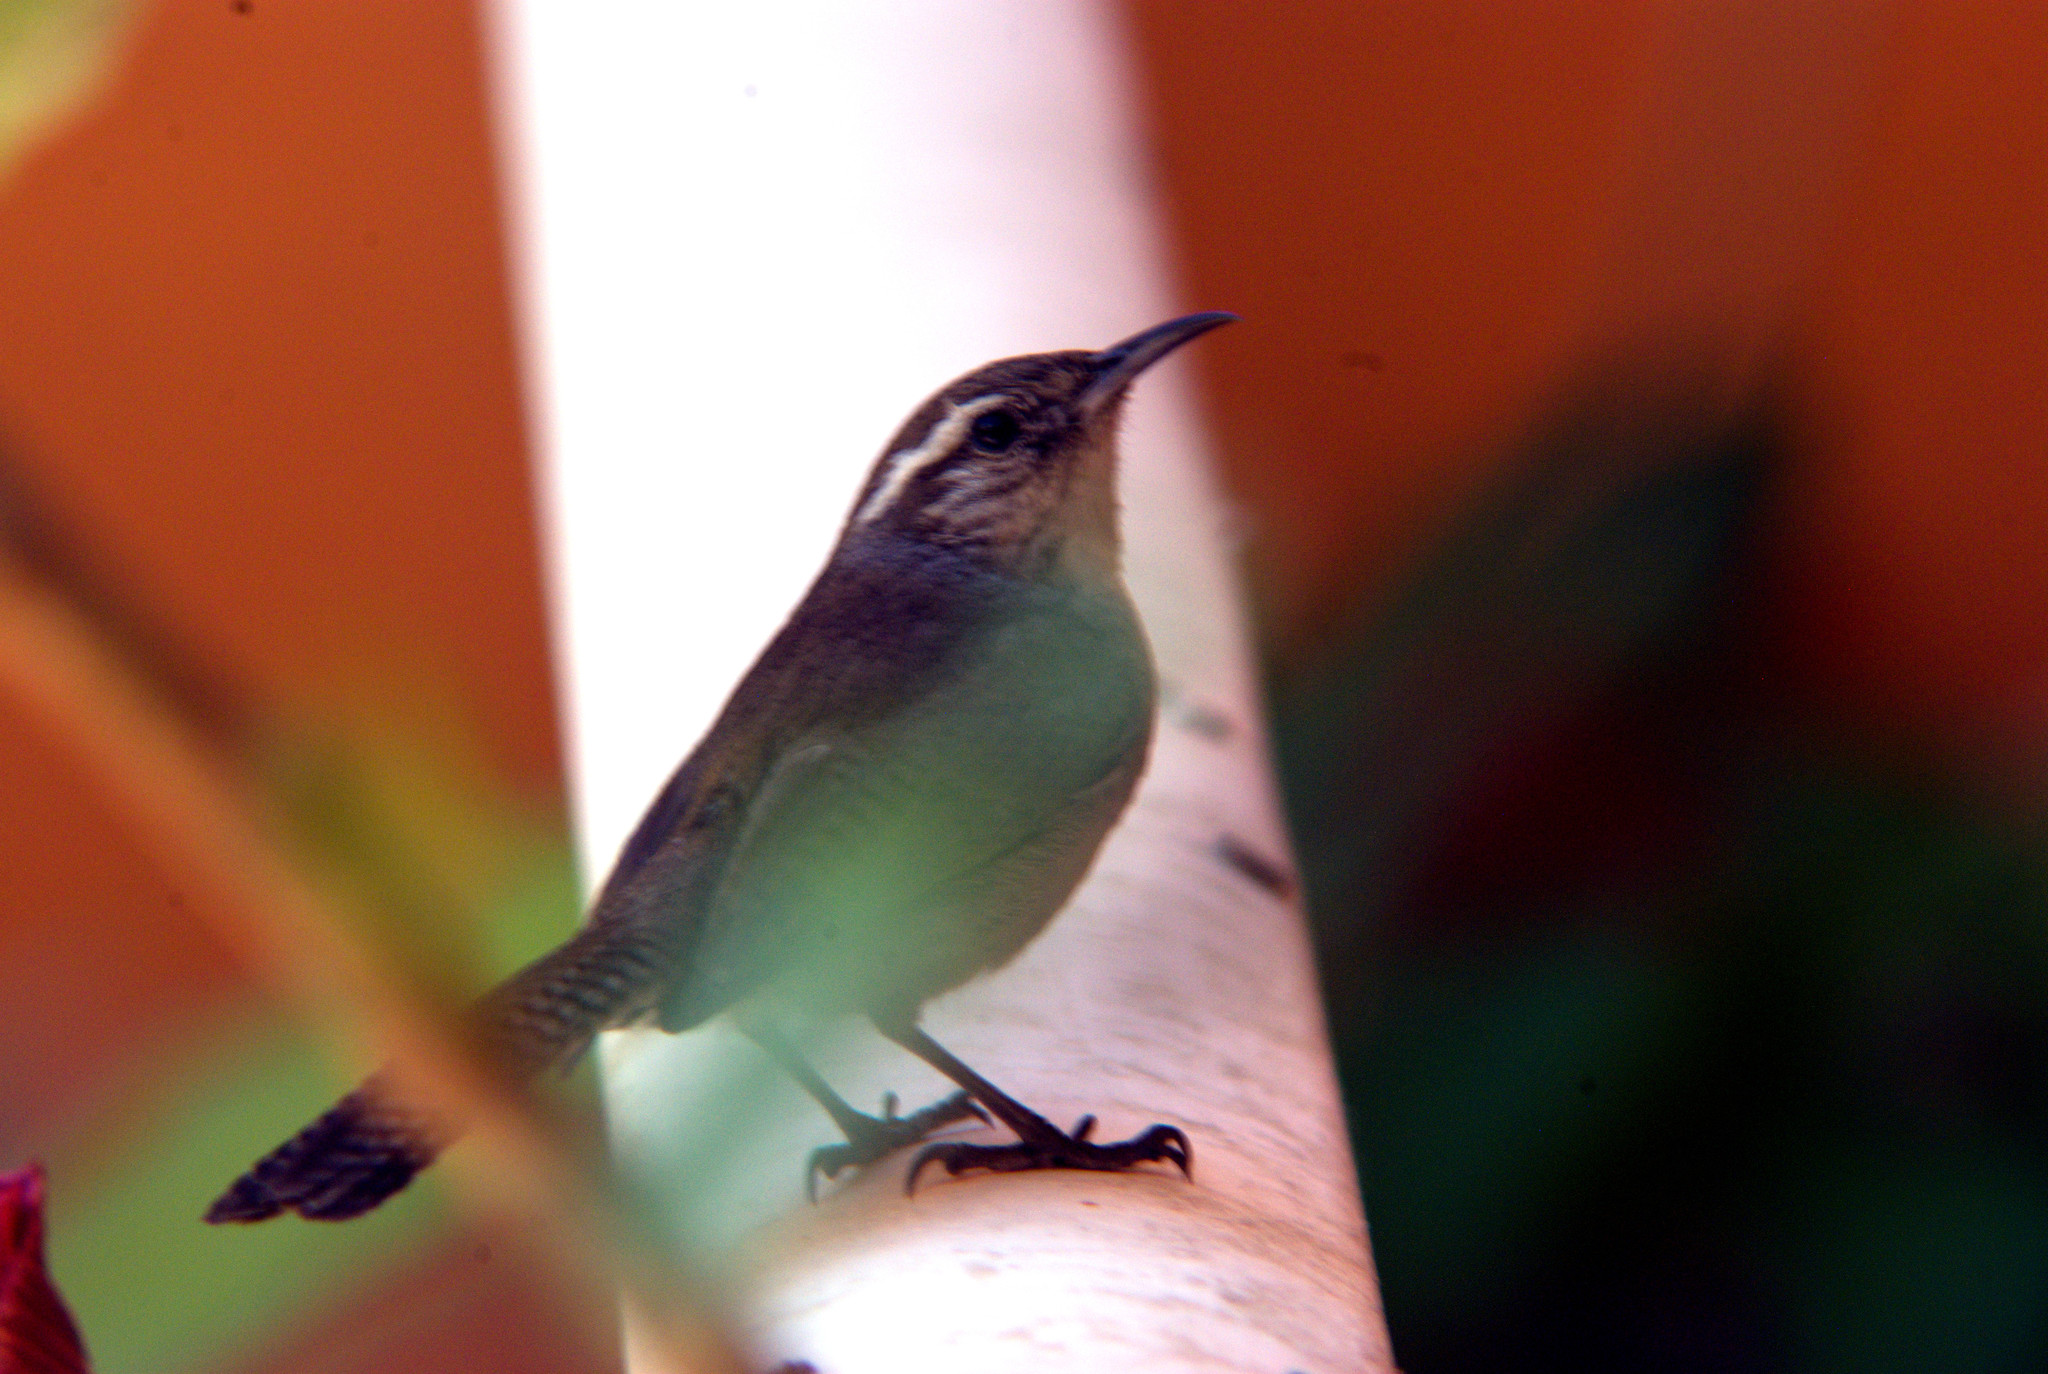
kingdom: Animalia
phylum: Chordata
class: Aves
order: Passeriformes
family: Troglodytidae
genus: Thryomanes
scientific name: Thryomanes bewickii
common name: Bewick's wren
